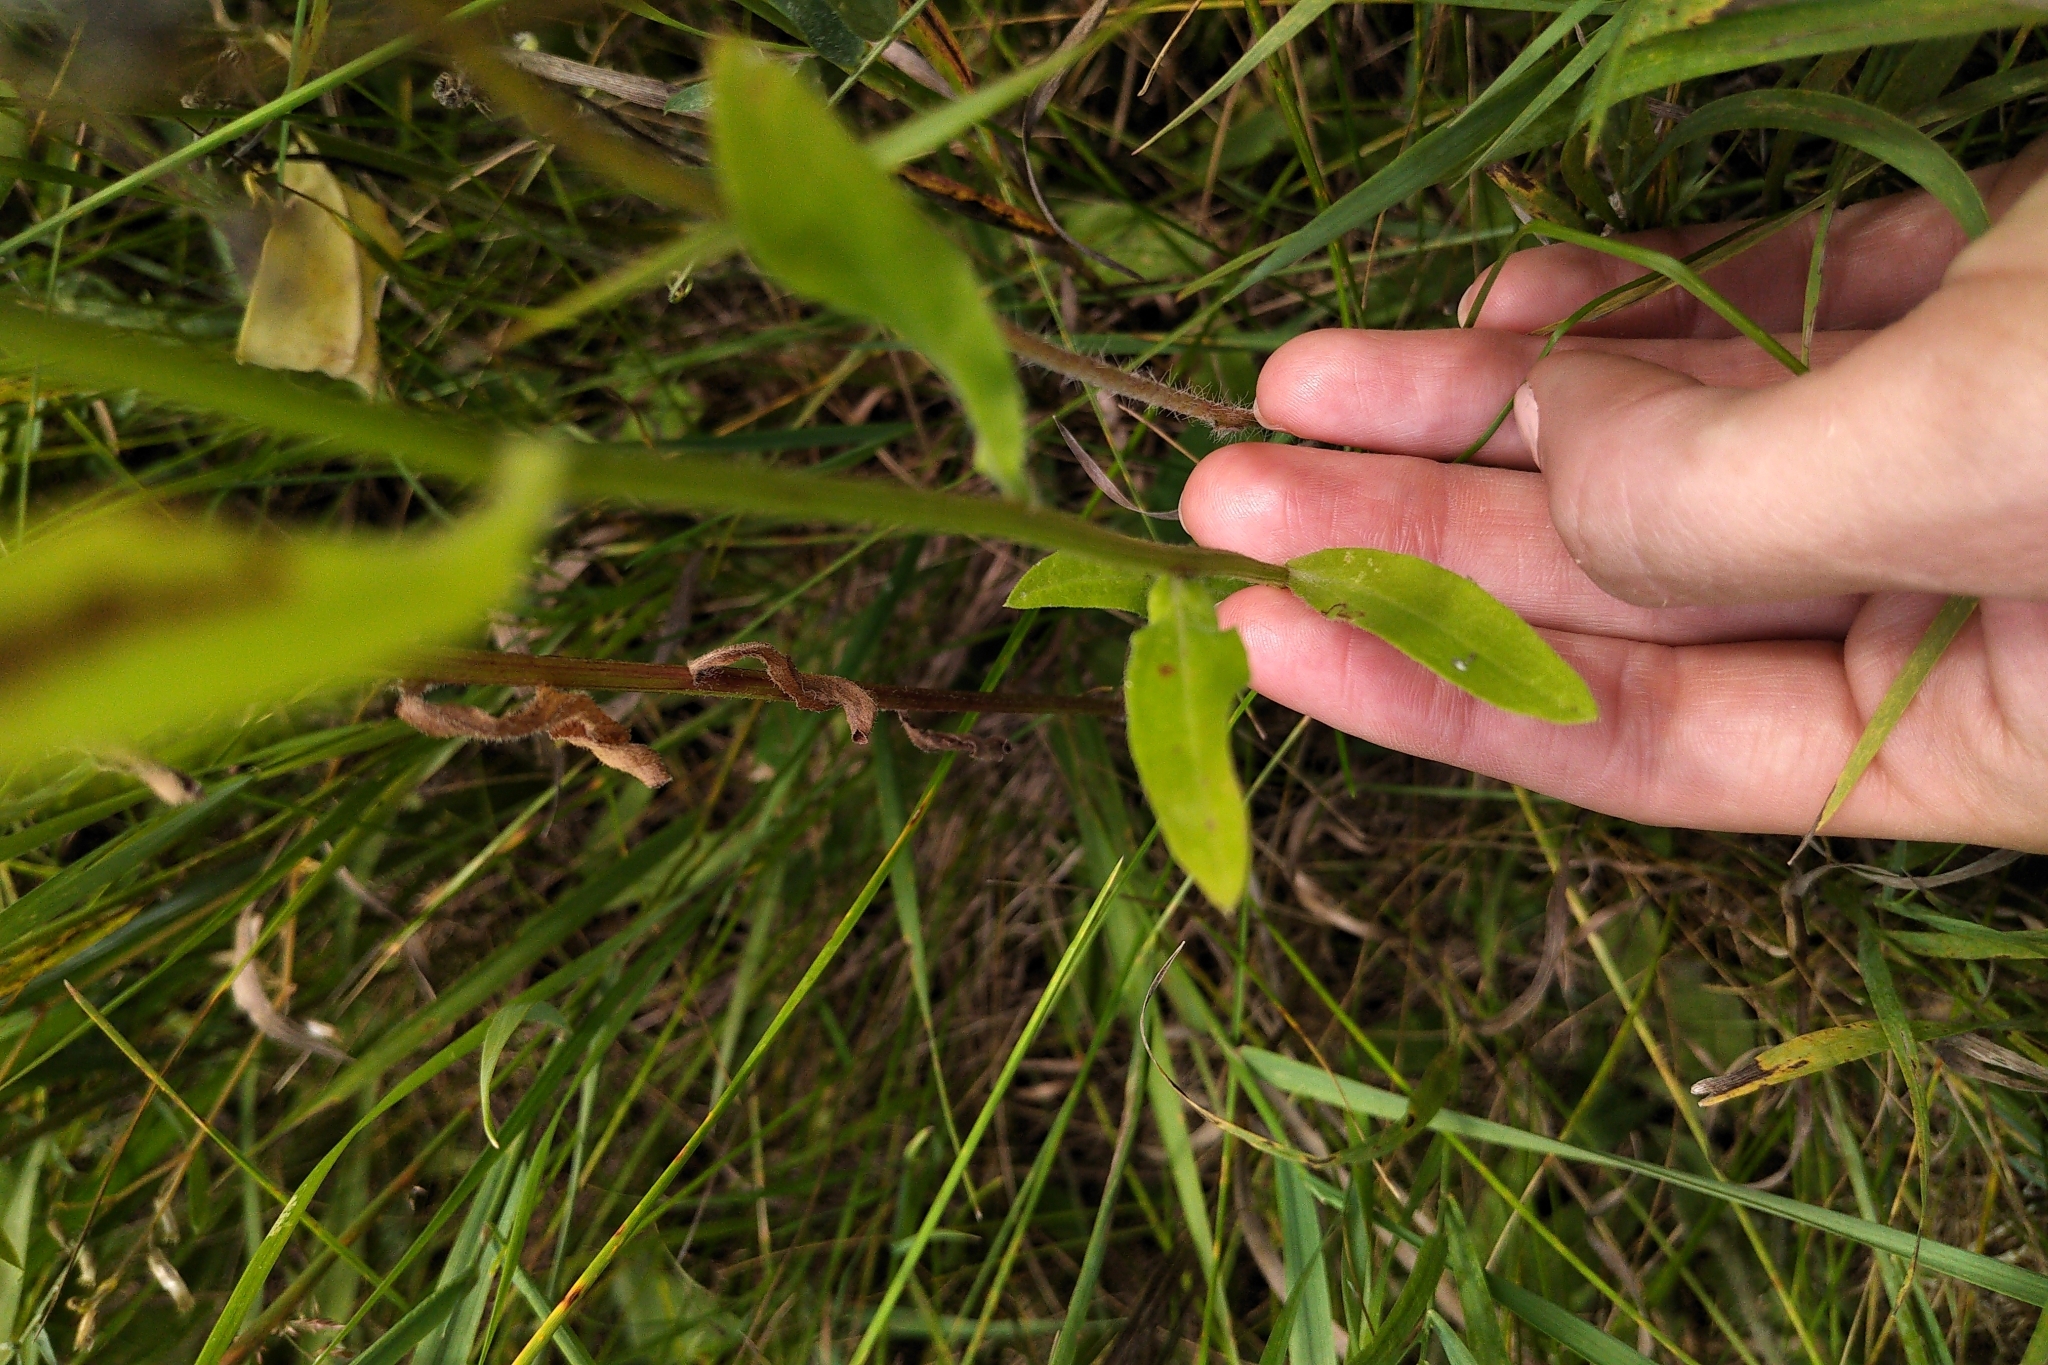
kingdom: Plantae
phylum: Tracheophyta
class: Magnoliopsida
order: Asterales
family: Asteraceae
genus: Erigeron
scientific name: Erigeron strigosus
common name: Common eastern fleabane
